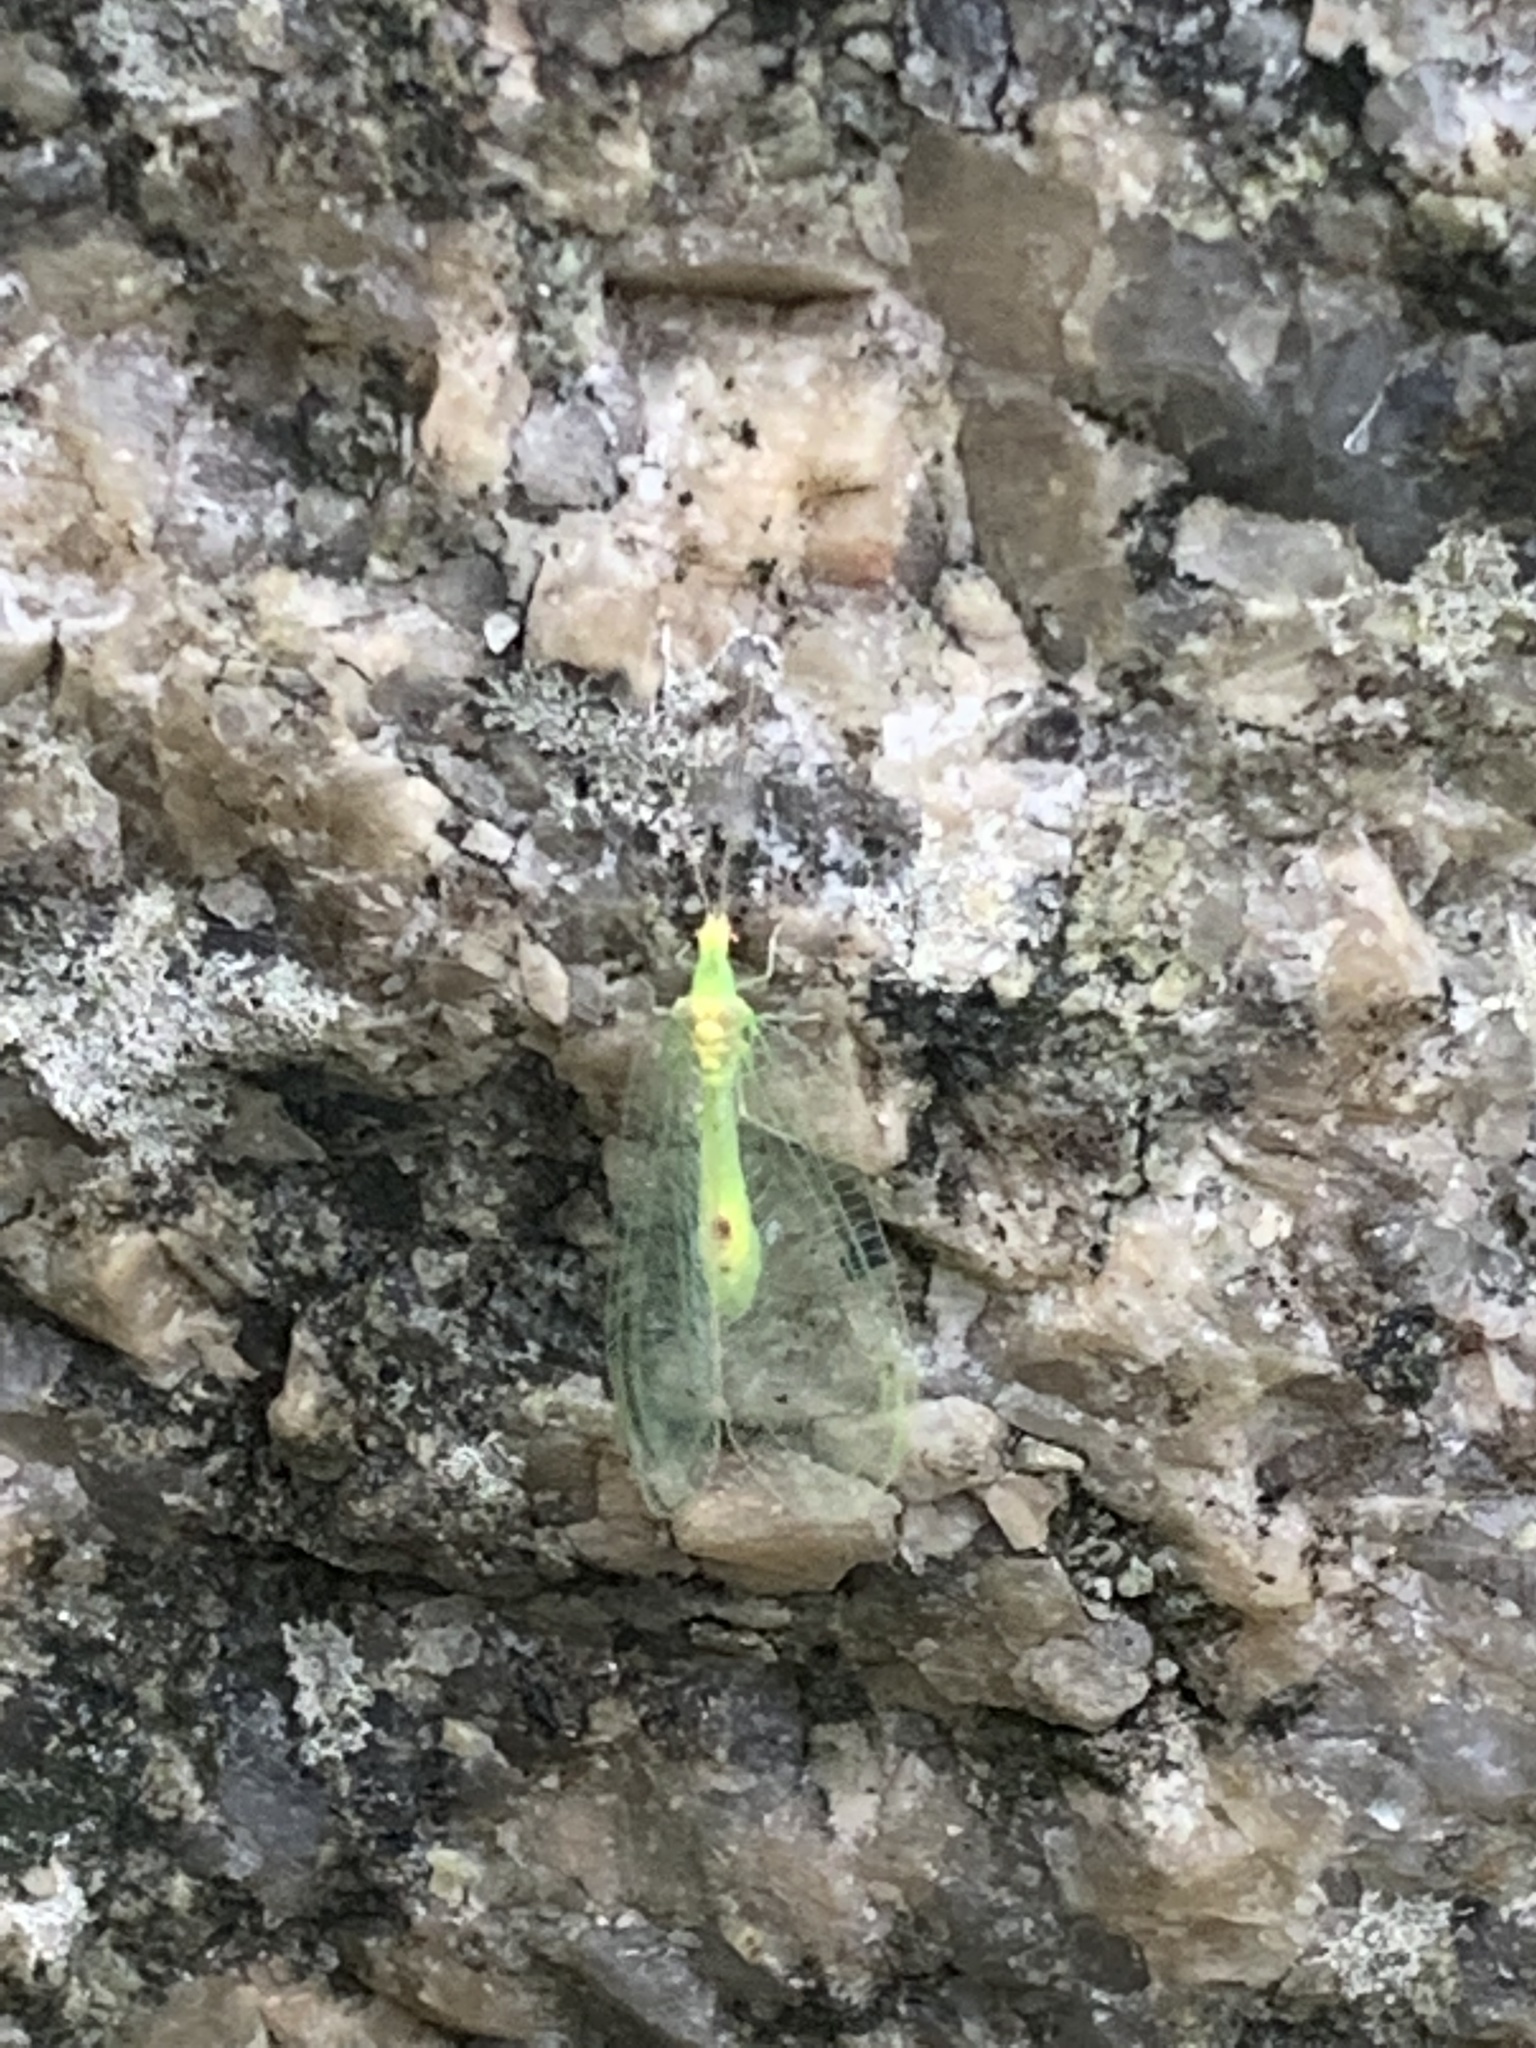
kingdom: Animalia
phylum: Arthropoda
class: Insecta
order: Neuroptera
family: Chrysopidae
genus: Leucochrysa
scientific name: Leucochrysa insularis
